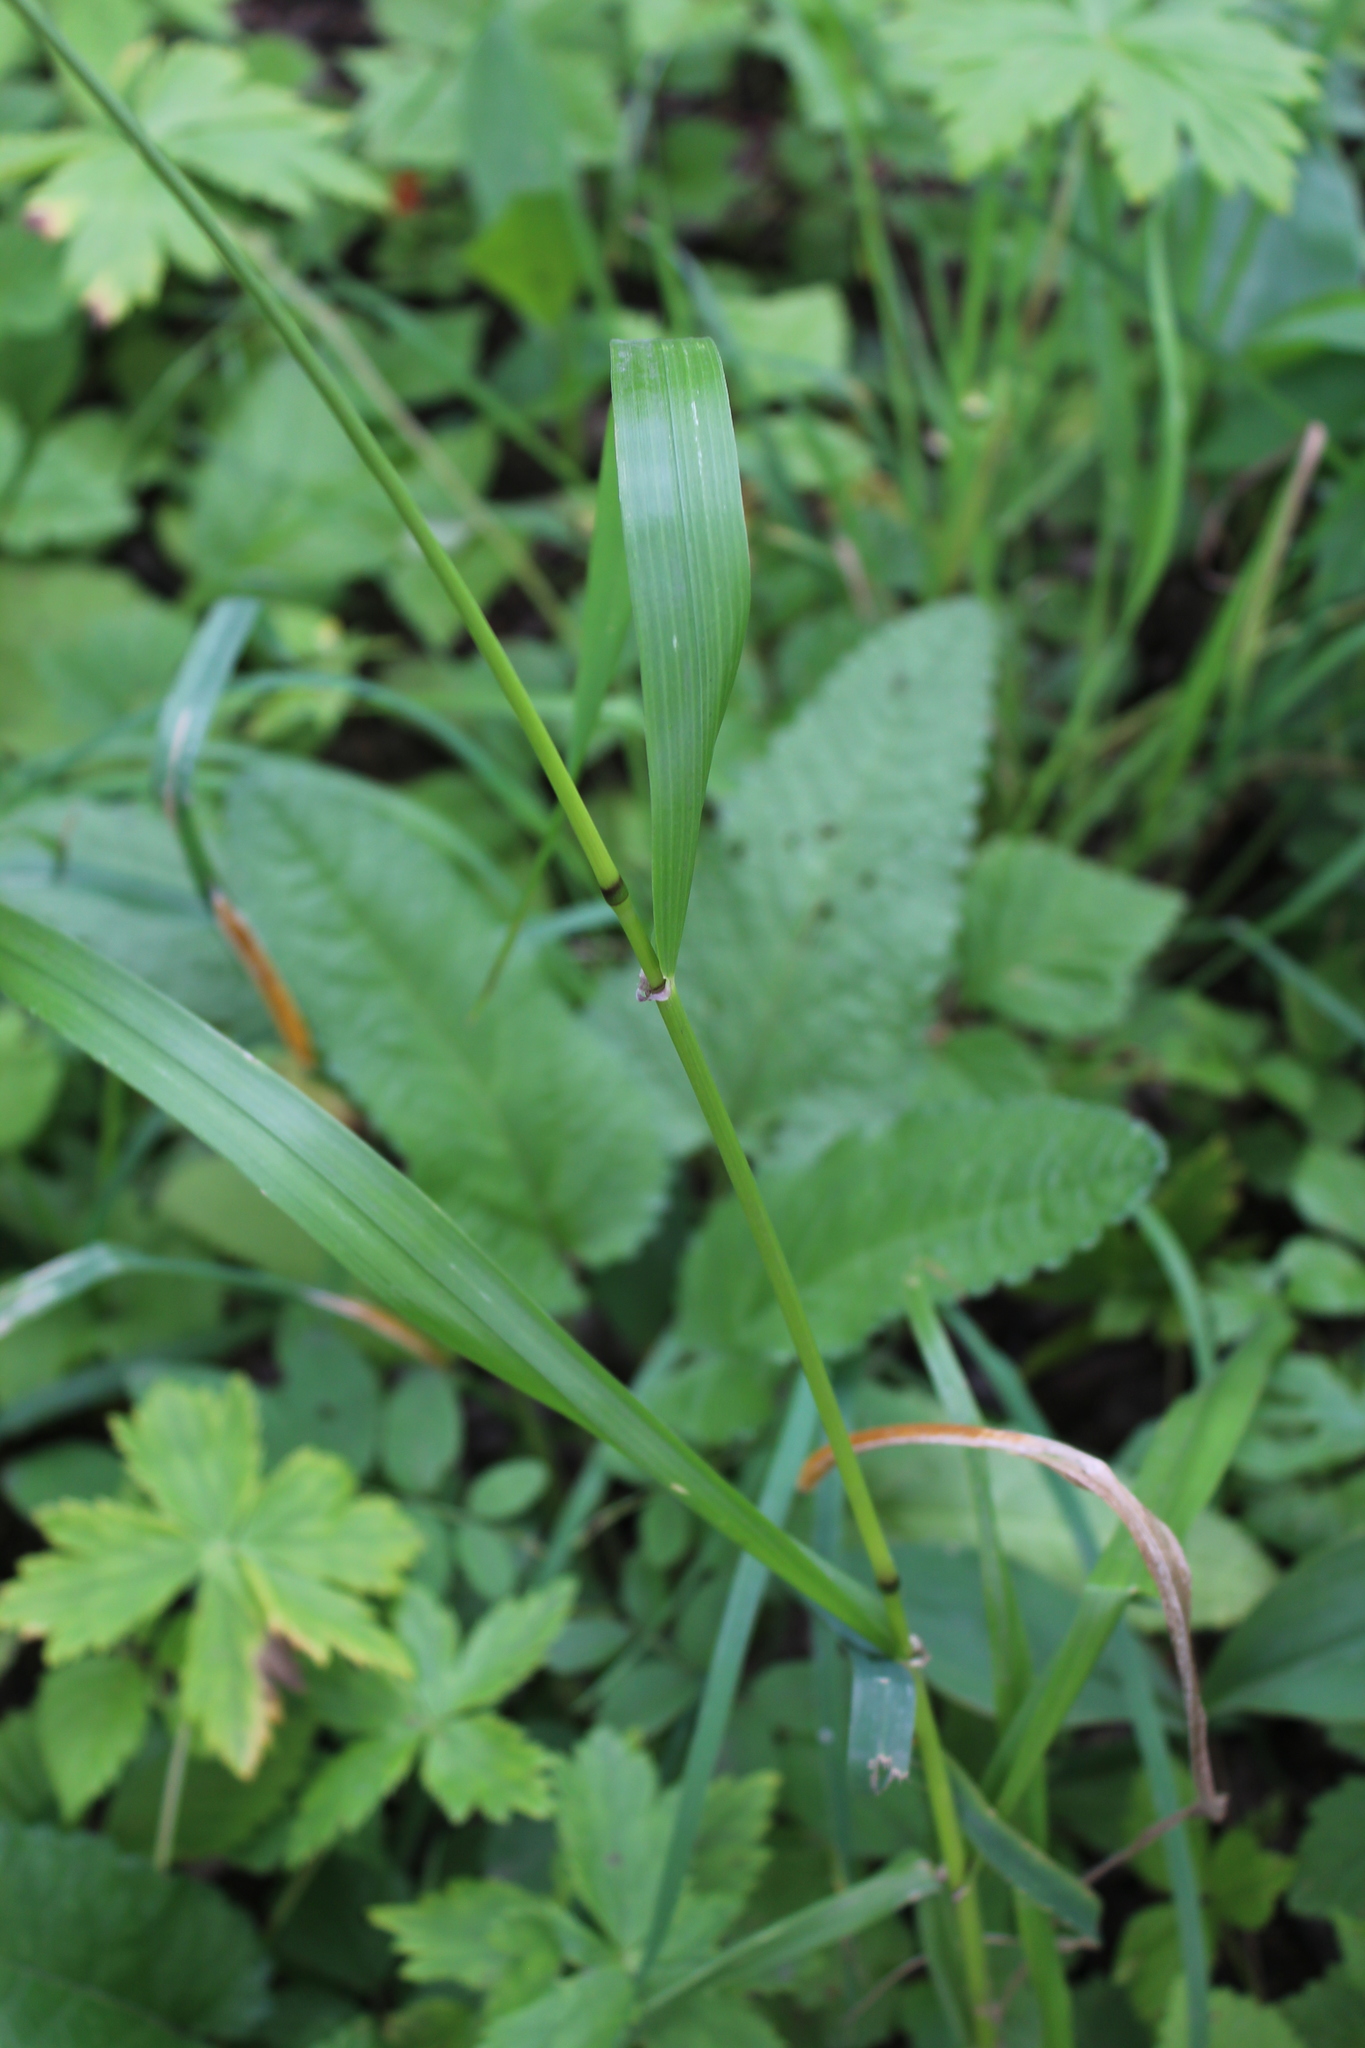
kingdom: Plantae
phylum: Tracheophyta
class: Liliopsida
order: Poales
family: Poaceae
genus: Lolium
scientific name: Lolium giganteum
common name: Giant fescue
